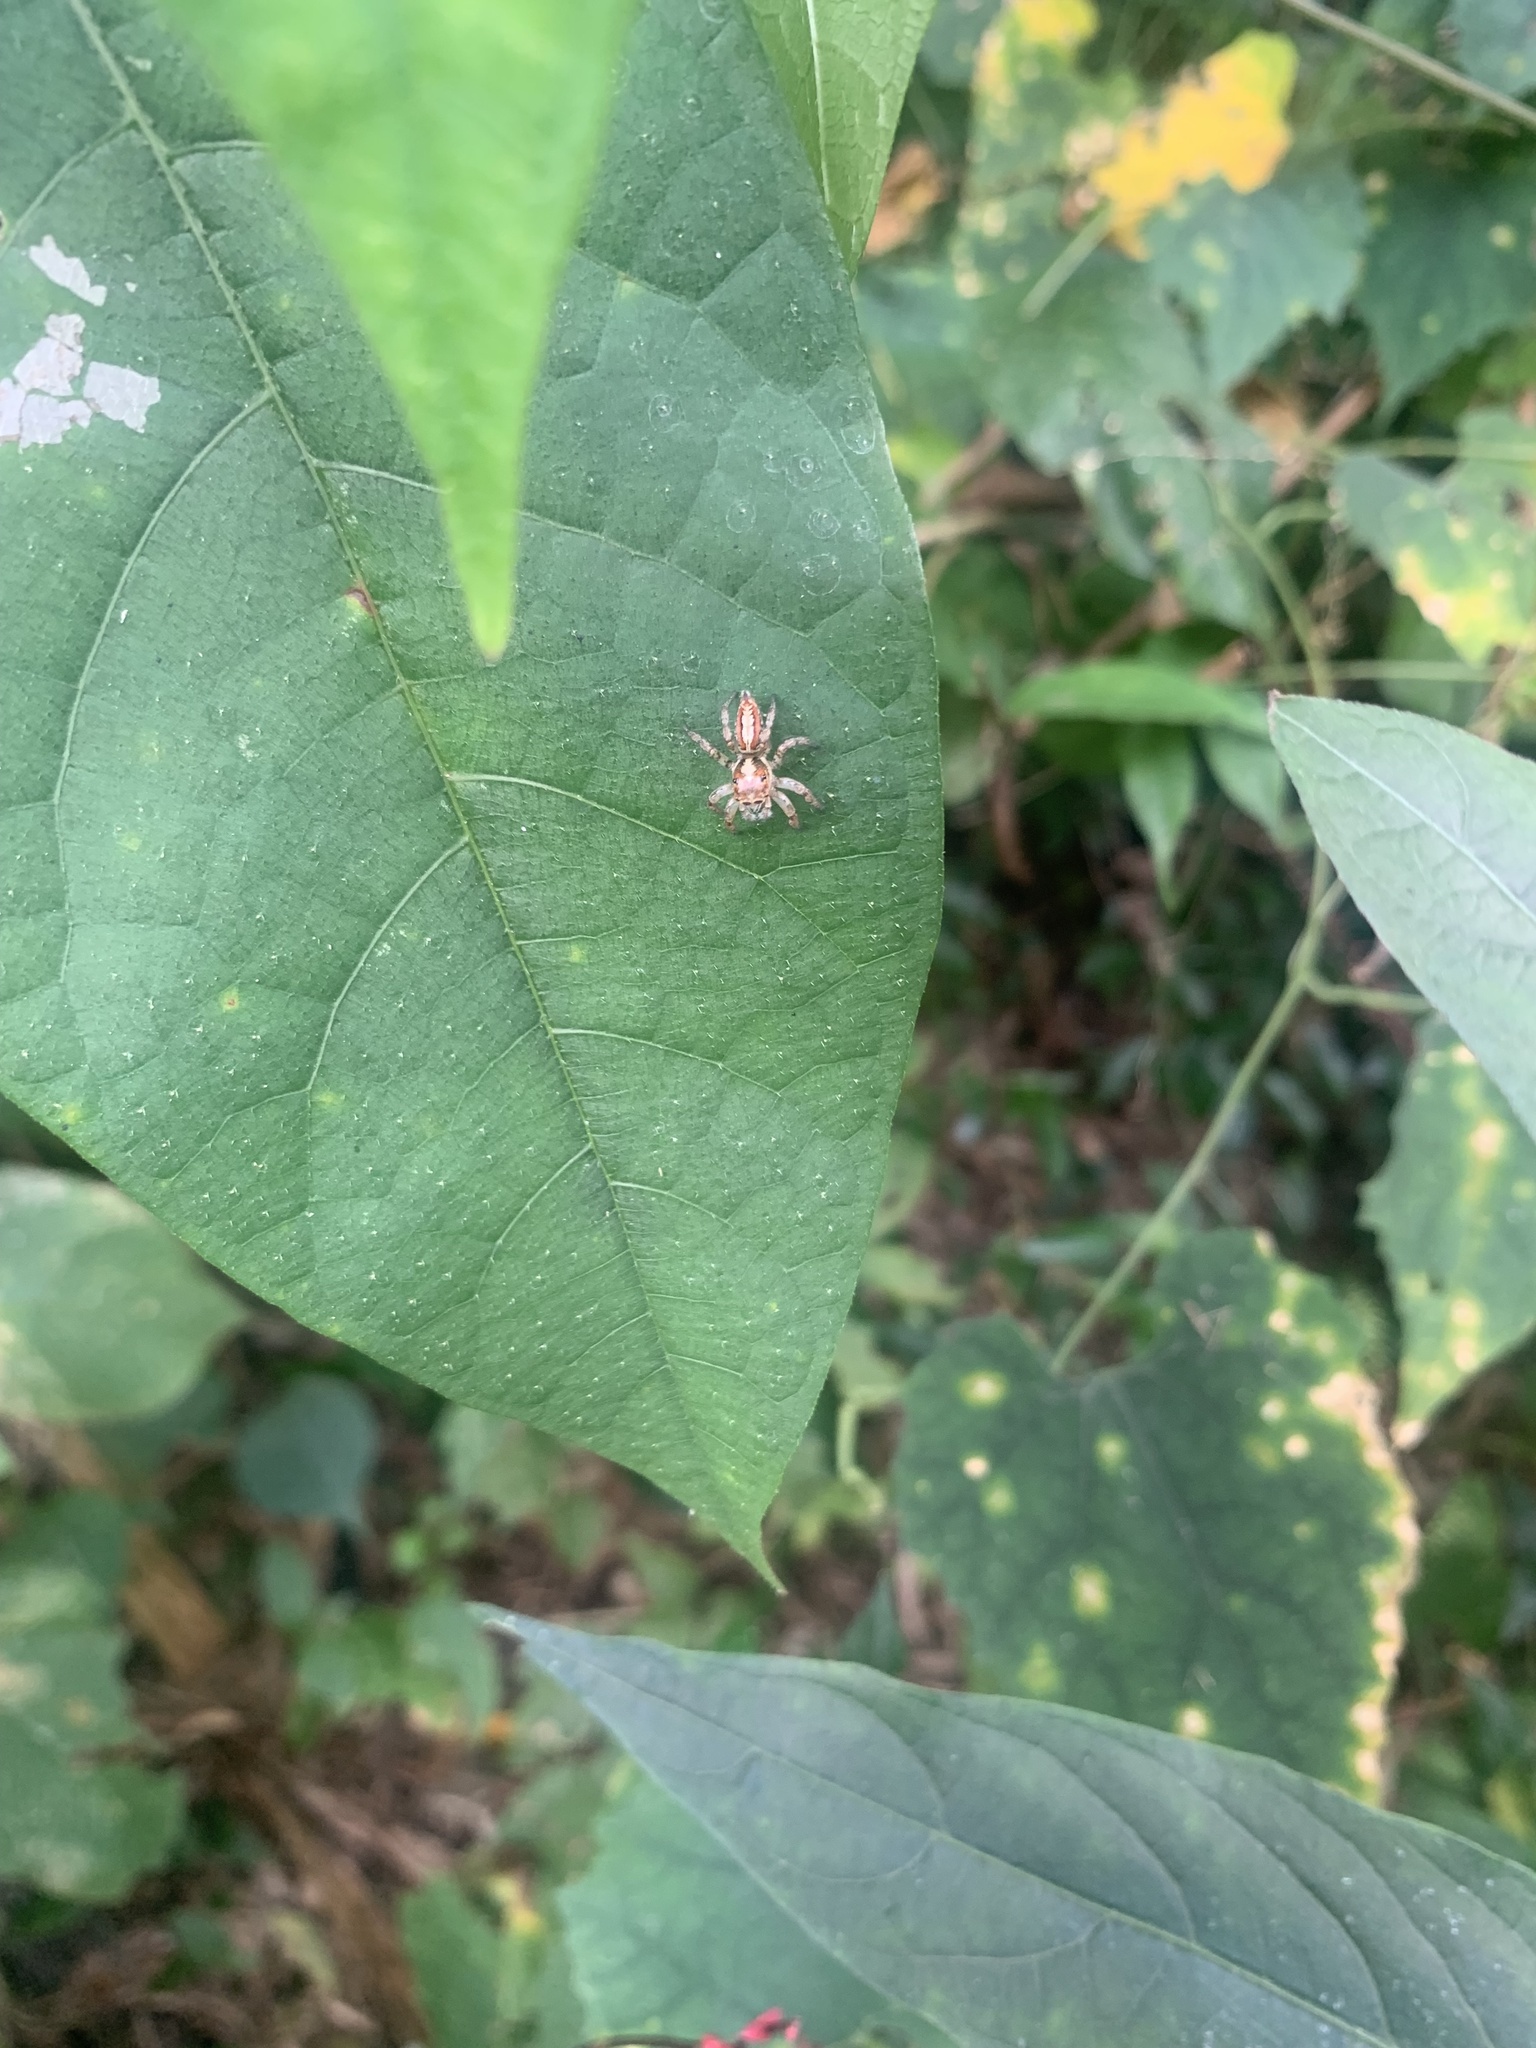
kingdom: Animalia
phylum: Arthropoda
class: Arachnida
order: Araneae
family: Salticidae
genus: Plexippoides
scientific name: Plexippoides doenitzi
